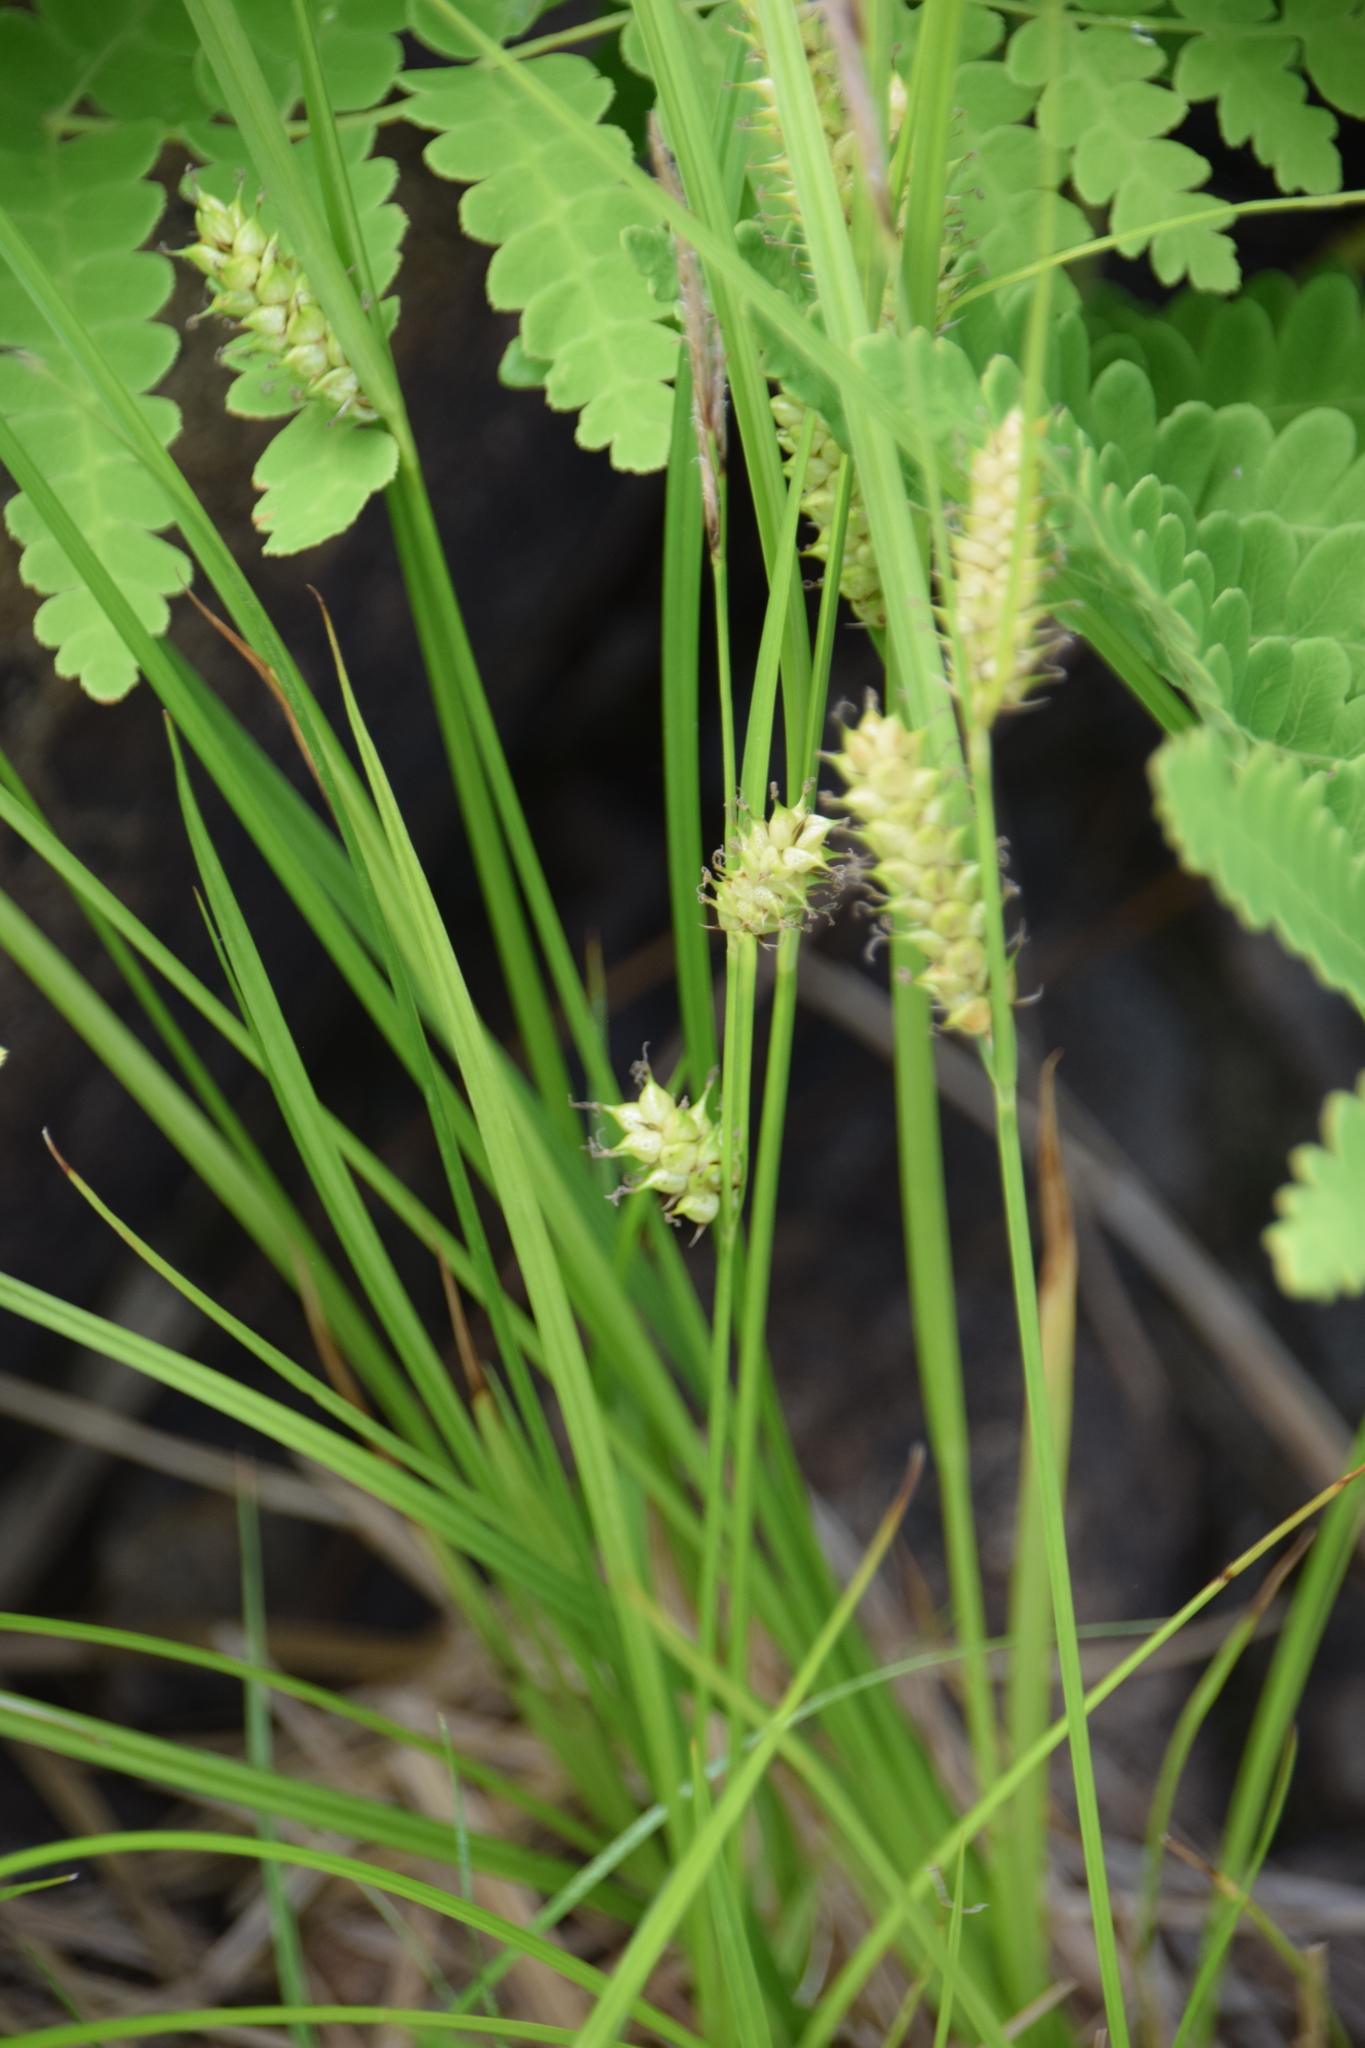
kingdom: Plantae
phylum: Tracheophyta
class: Liliopsida
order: Poales
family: Cyperaceae
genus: Carex
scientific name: Carex vesicaria
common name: Bladder-sedge
